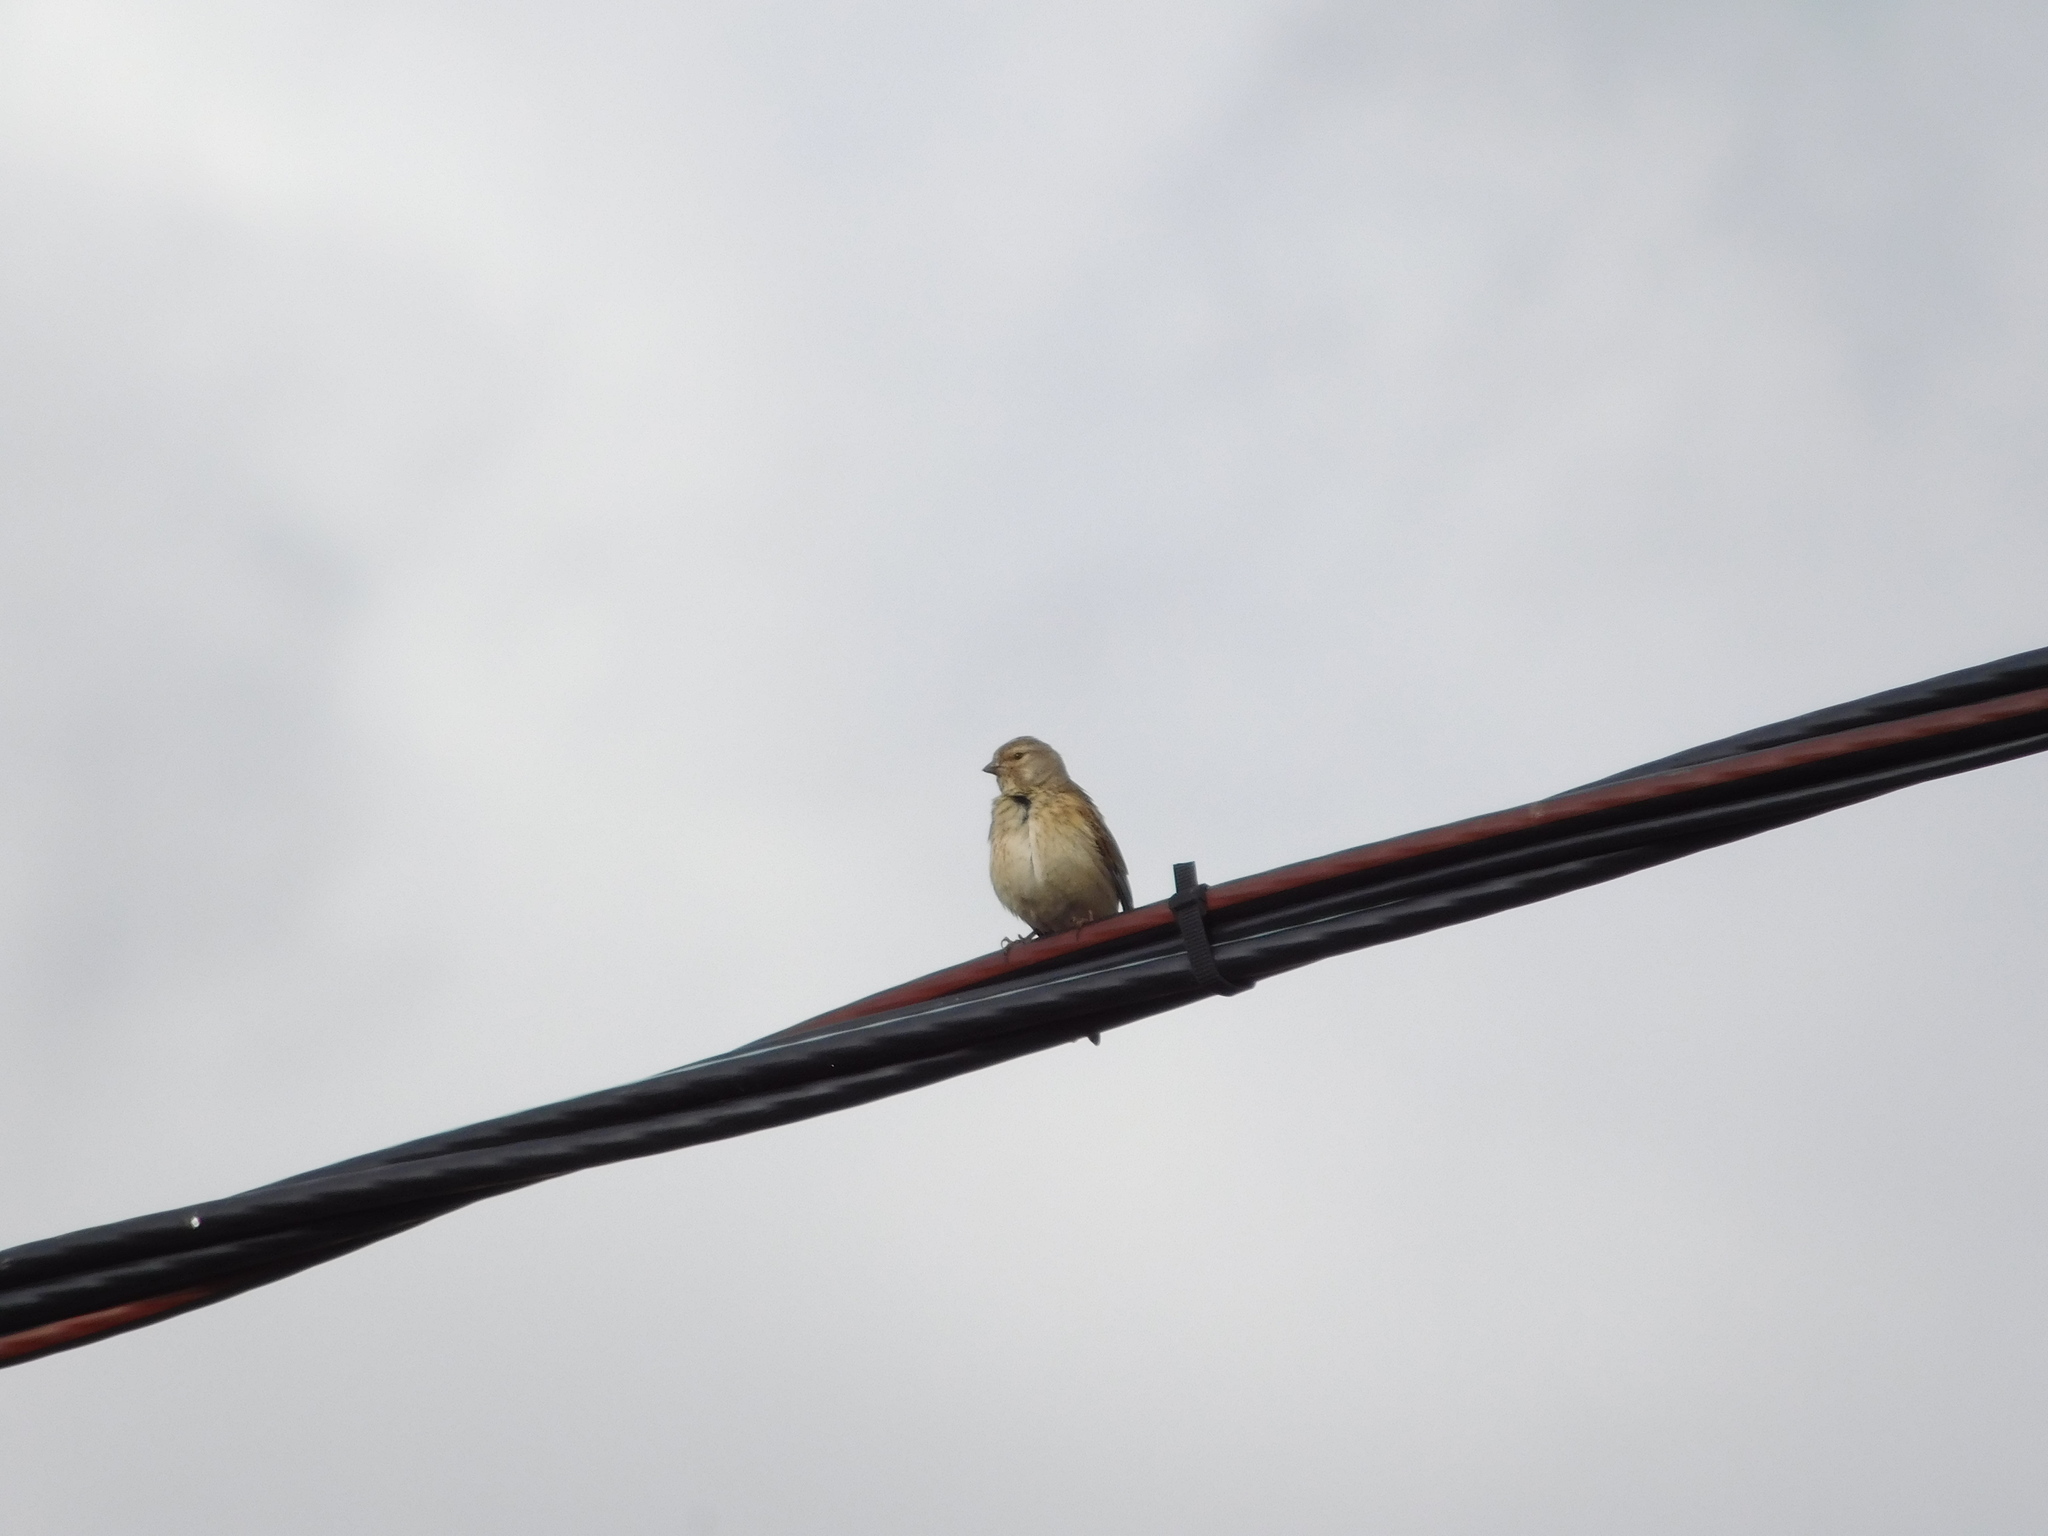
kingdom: Animalia
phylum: Chordata
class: Aves
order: Passeriformes
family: Fringillidae
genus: Linaria
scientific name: Linaria cannabina
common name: Common linnet
